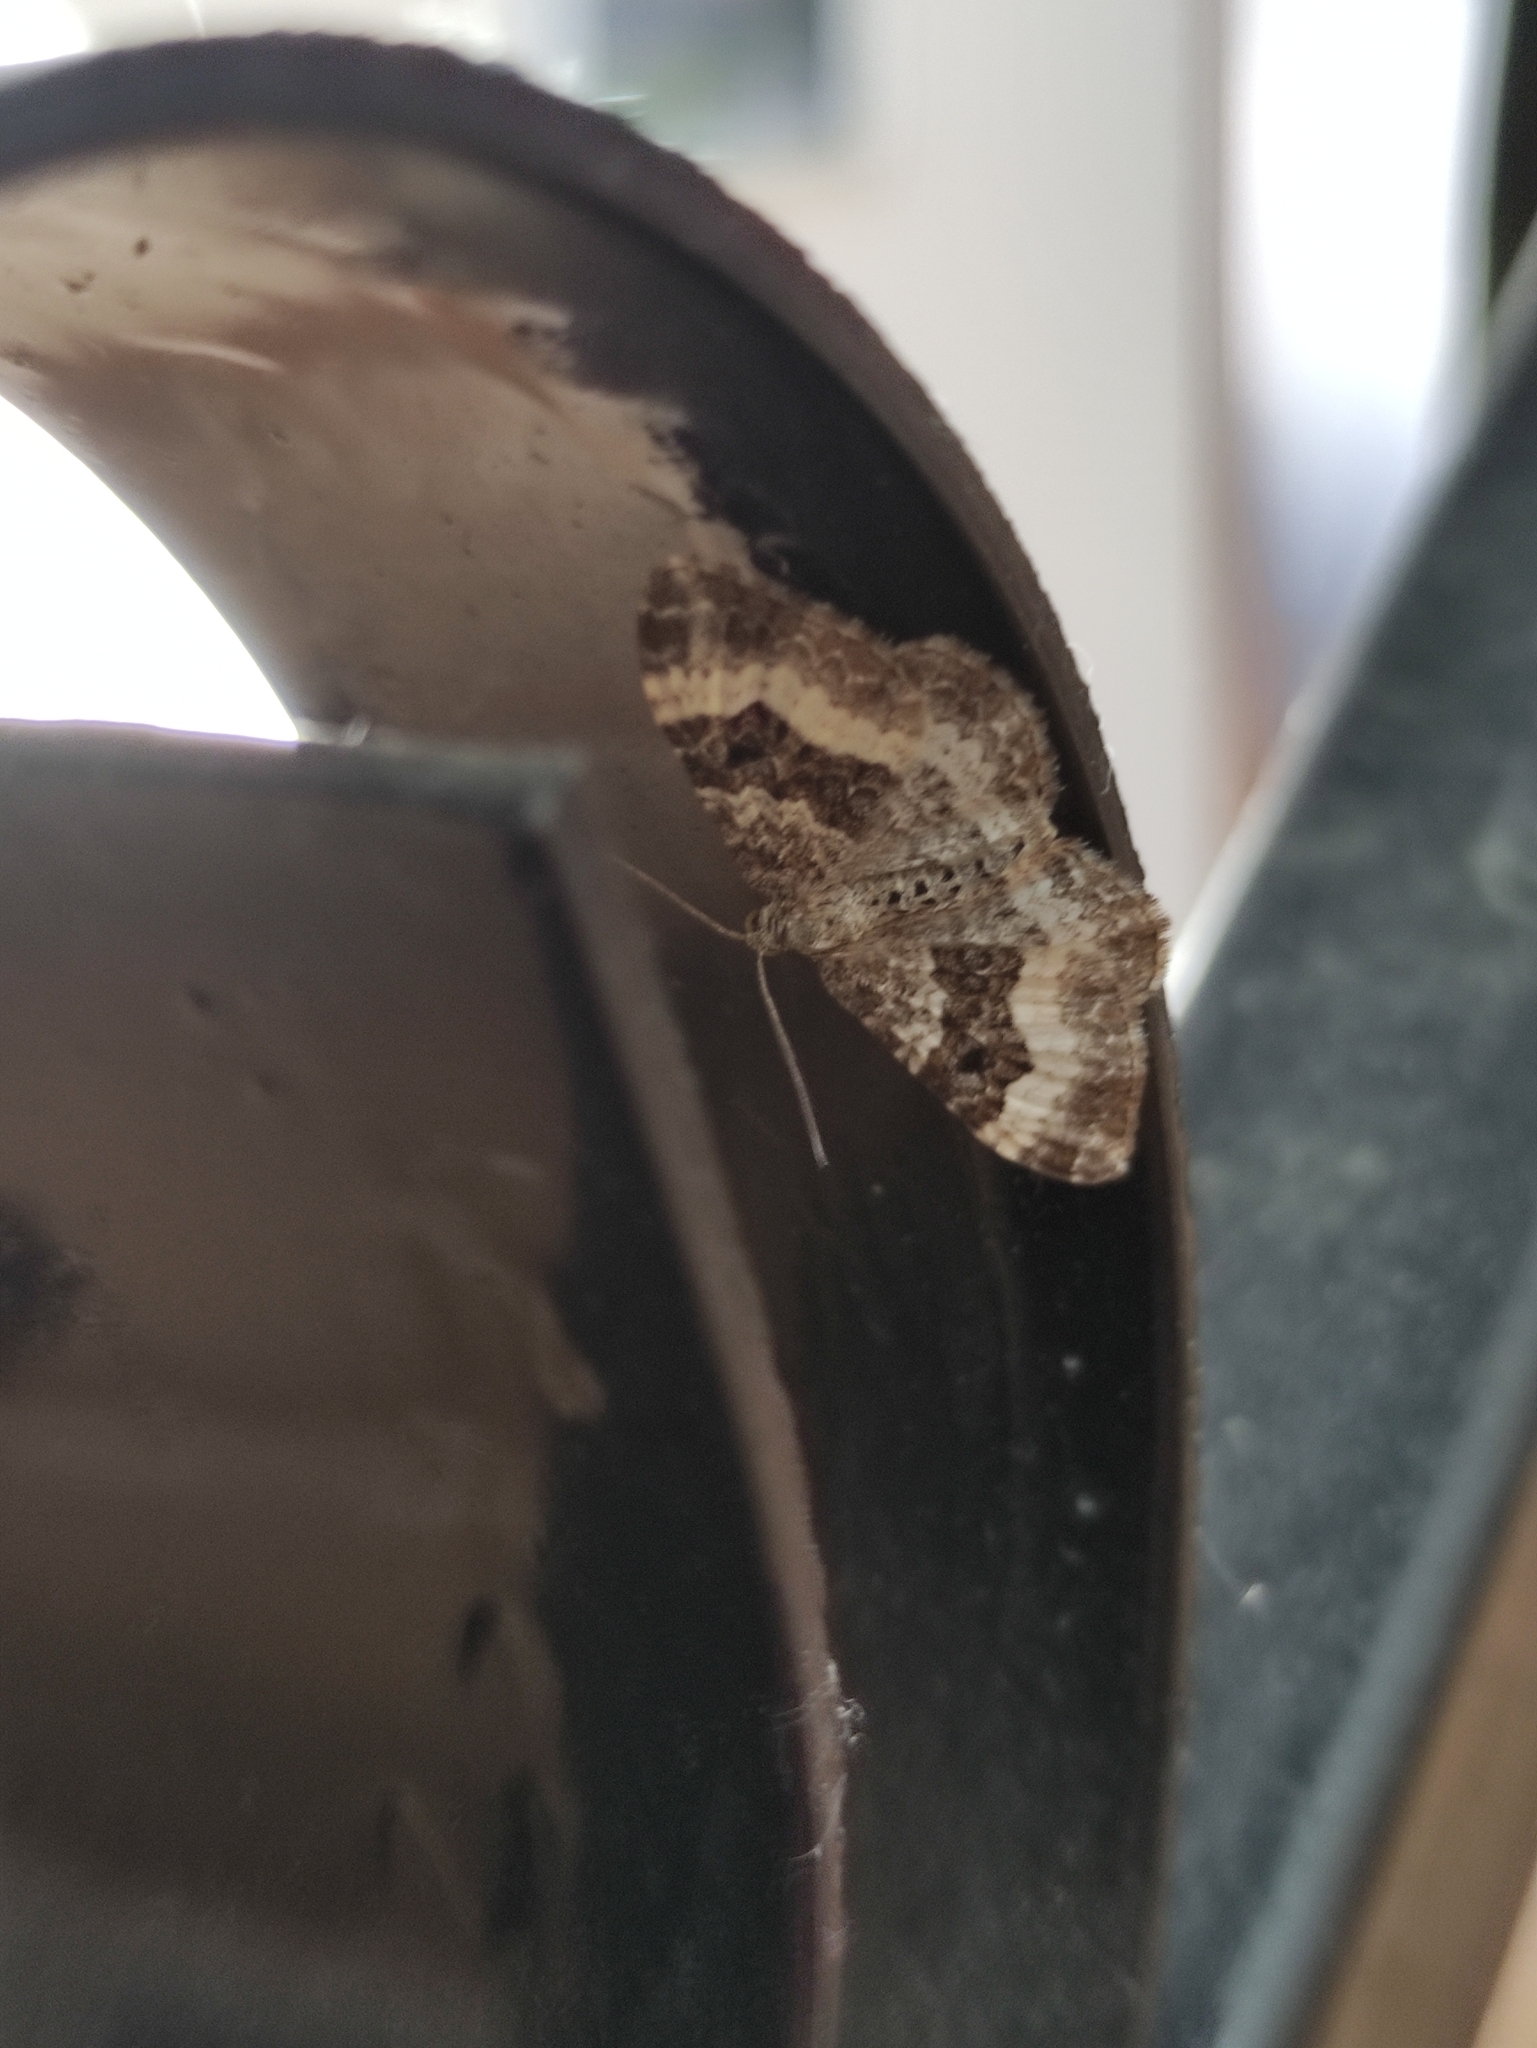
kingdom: Animalia
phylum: Arthropoda
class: Insecta
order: Lepidoptera
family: Geometridae
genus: Epirrhoe
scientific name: Epirrhoe alternata
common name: Common carpet
